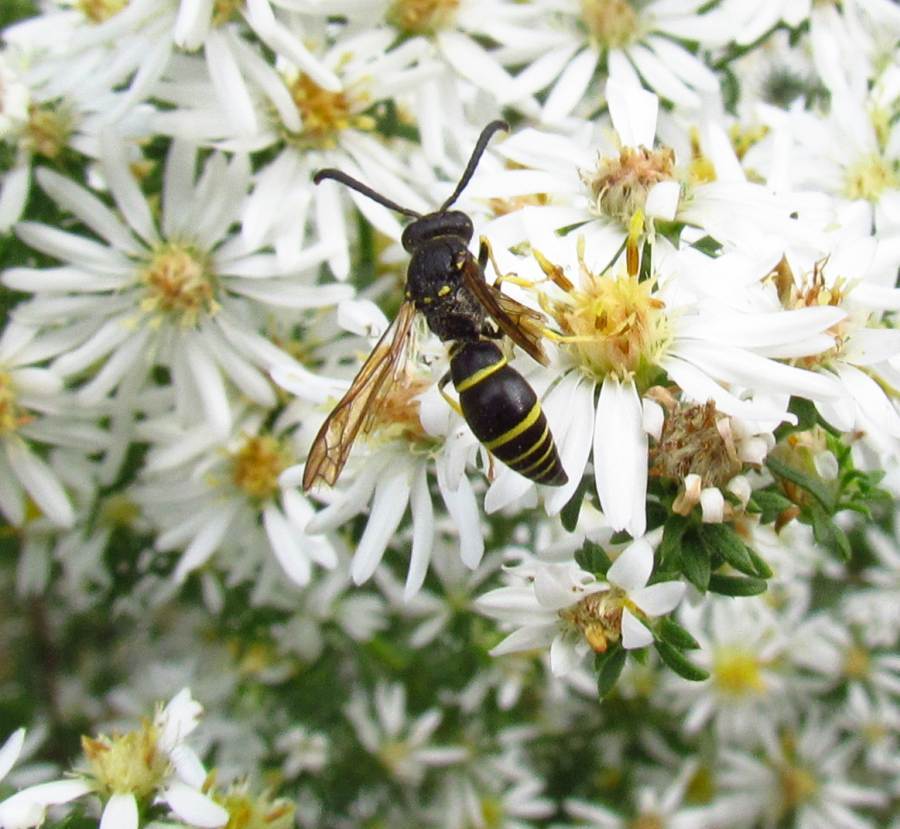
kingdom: Animalia
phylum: Arthropoda
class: Insecta
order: Hymenoptera
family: Vespidae
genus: Ancistrocerus
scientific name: Ancistrocerus
